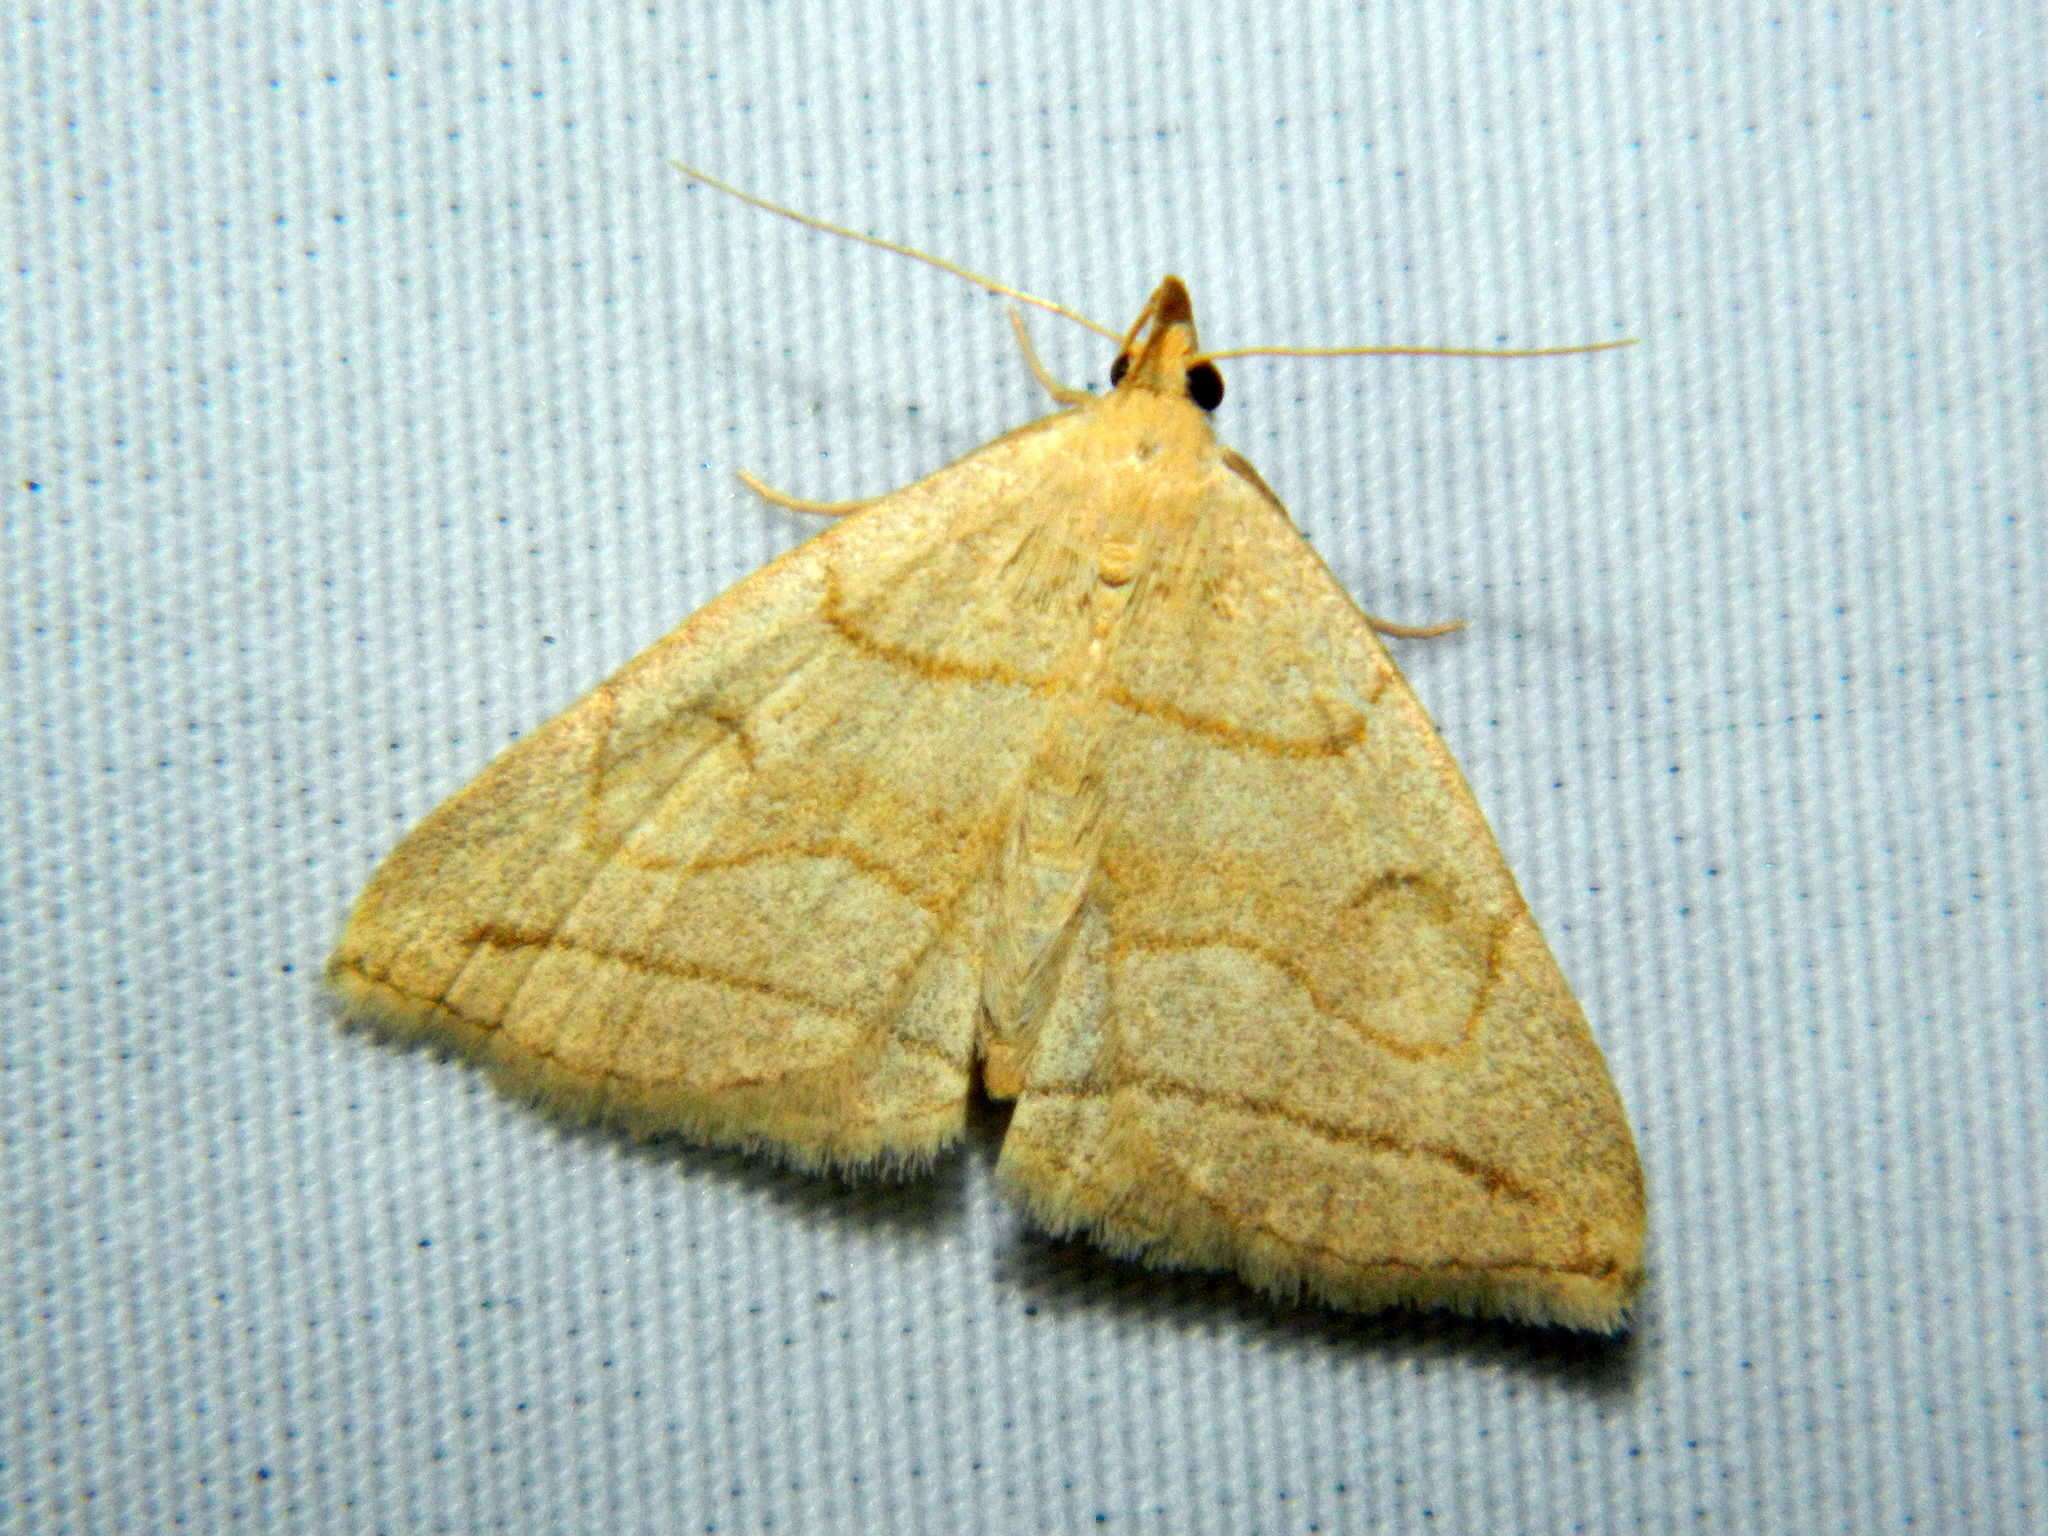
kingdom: Animalia
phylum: Arthropoda
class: Insecta
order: Lepidoptera
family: Erebidae
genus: Zanclognatha
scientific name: Zanclognatha pedipilalis
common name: Grayish fan-foot
